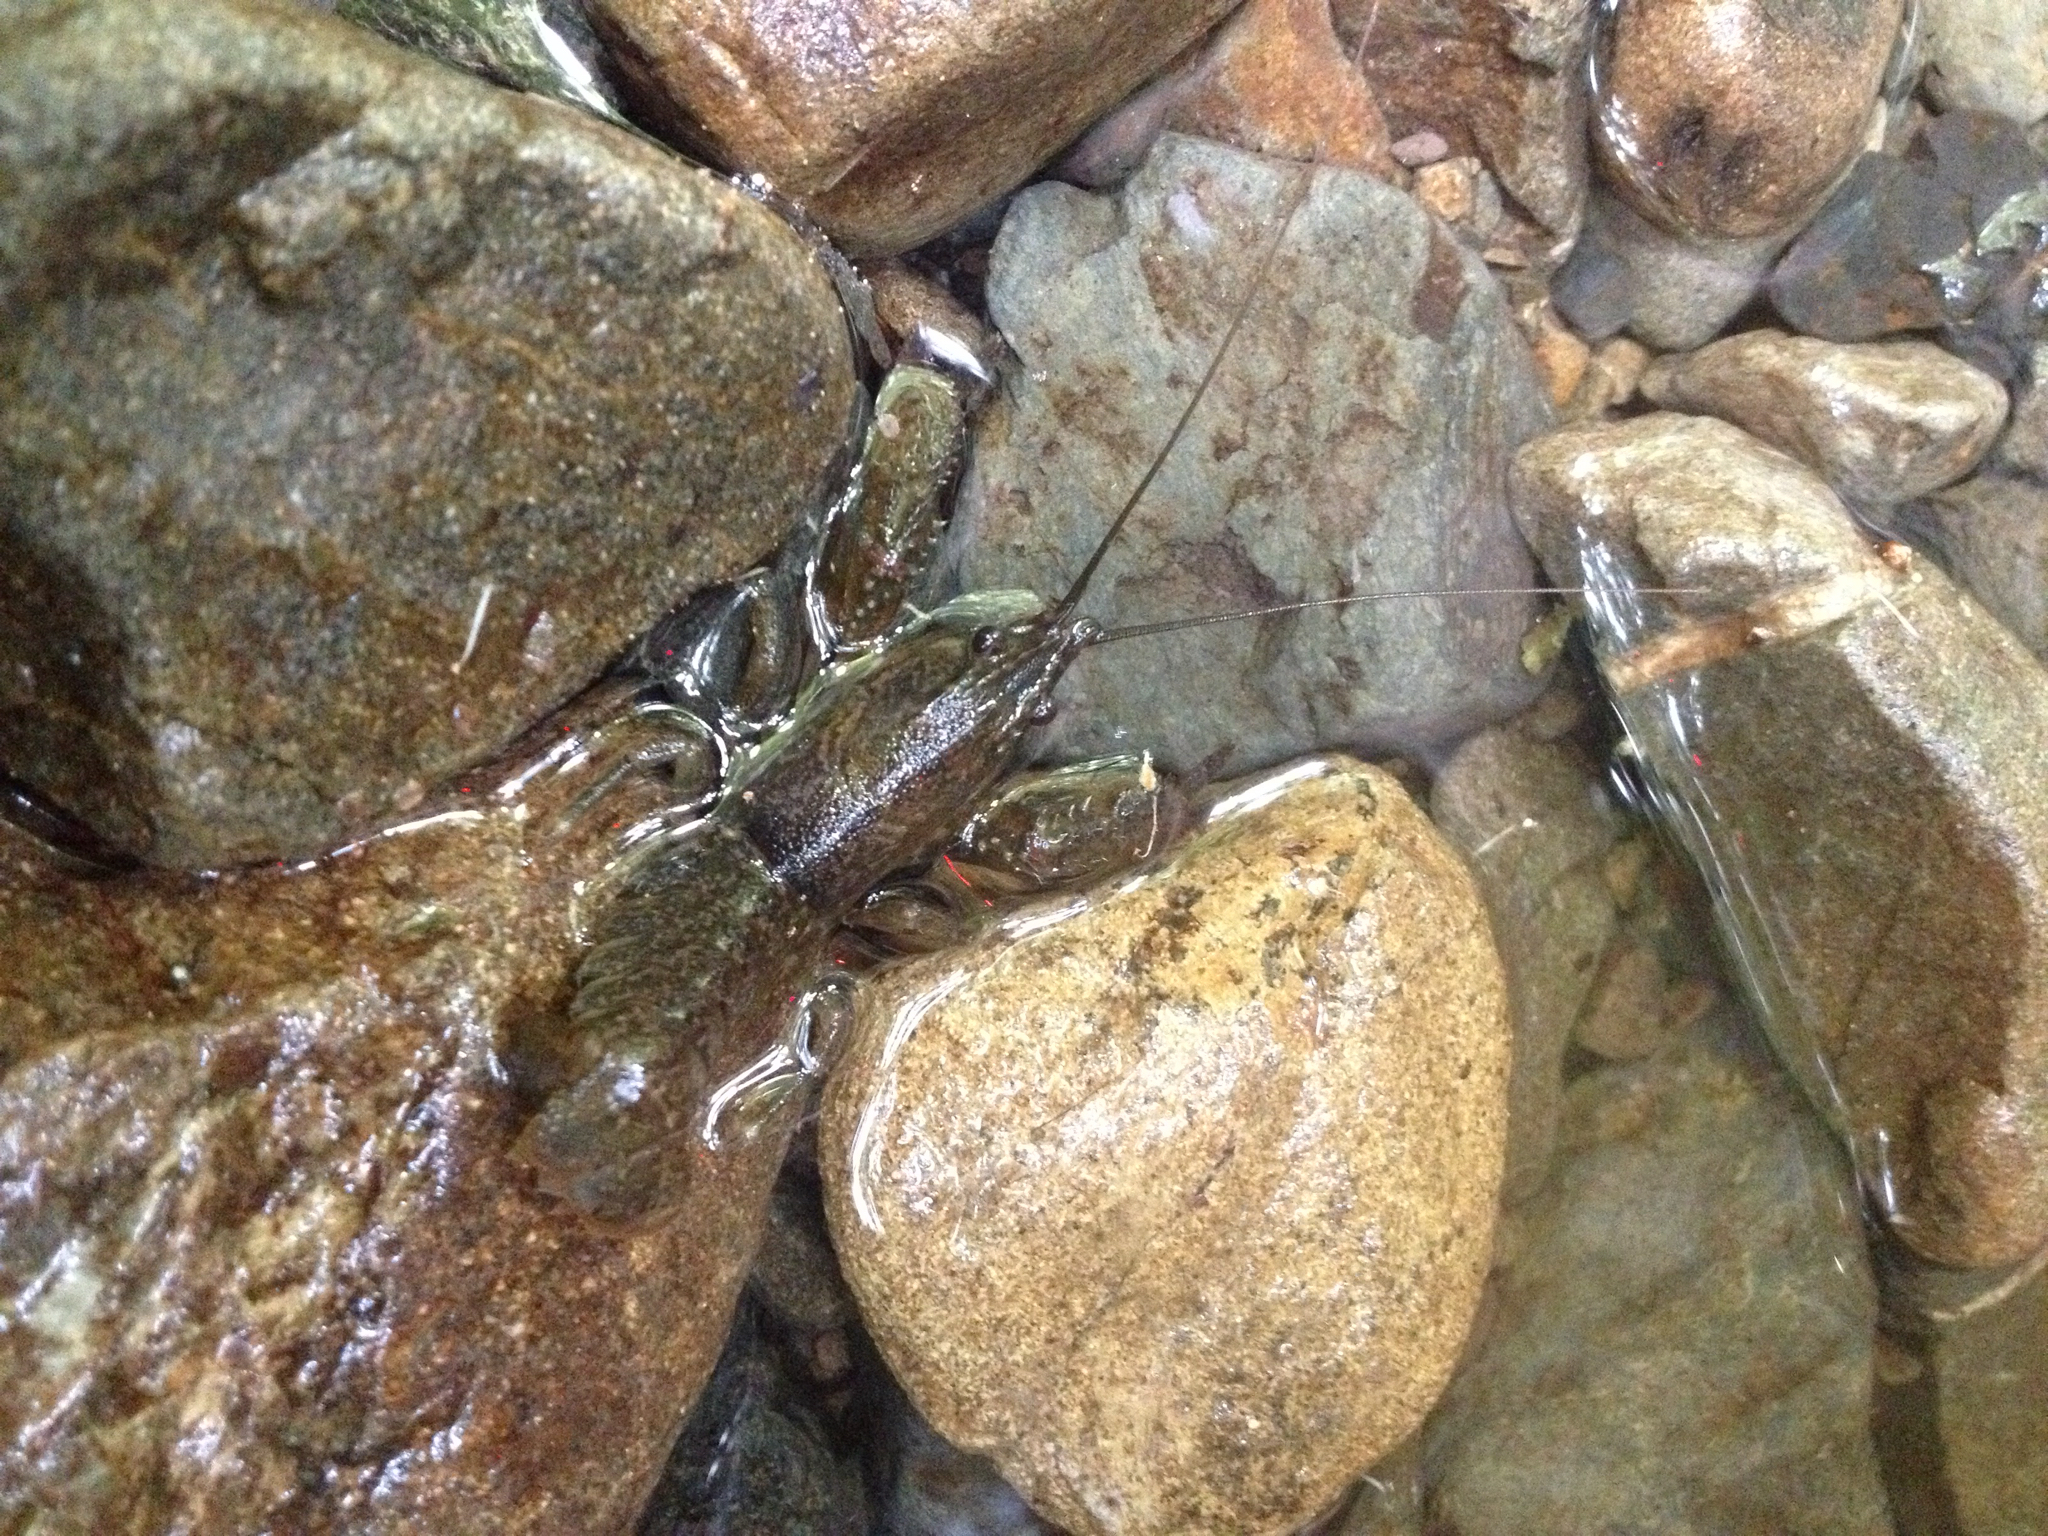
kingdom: Animalia
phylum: Arthropoda
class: Malacostraca
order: Decapoda
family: Parastacidae
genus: Paranephrops
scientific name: Paranephrops planifrons
